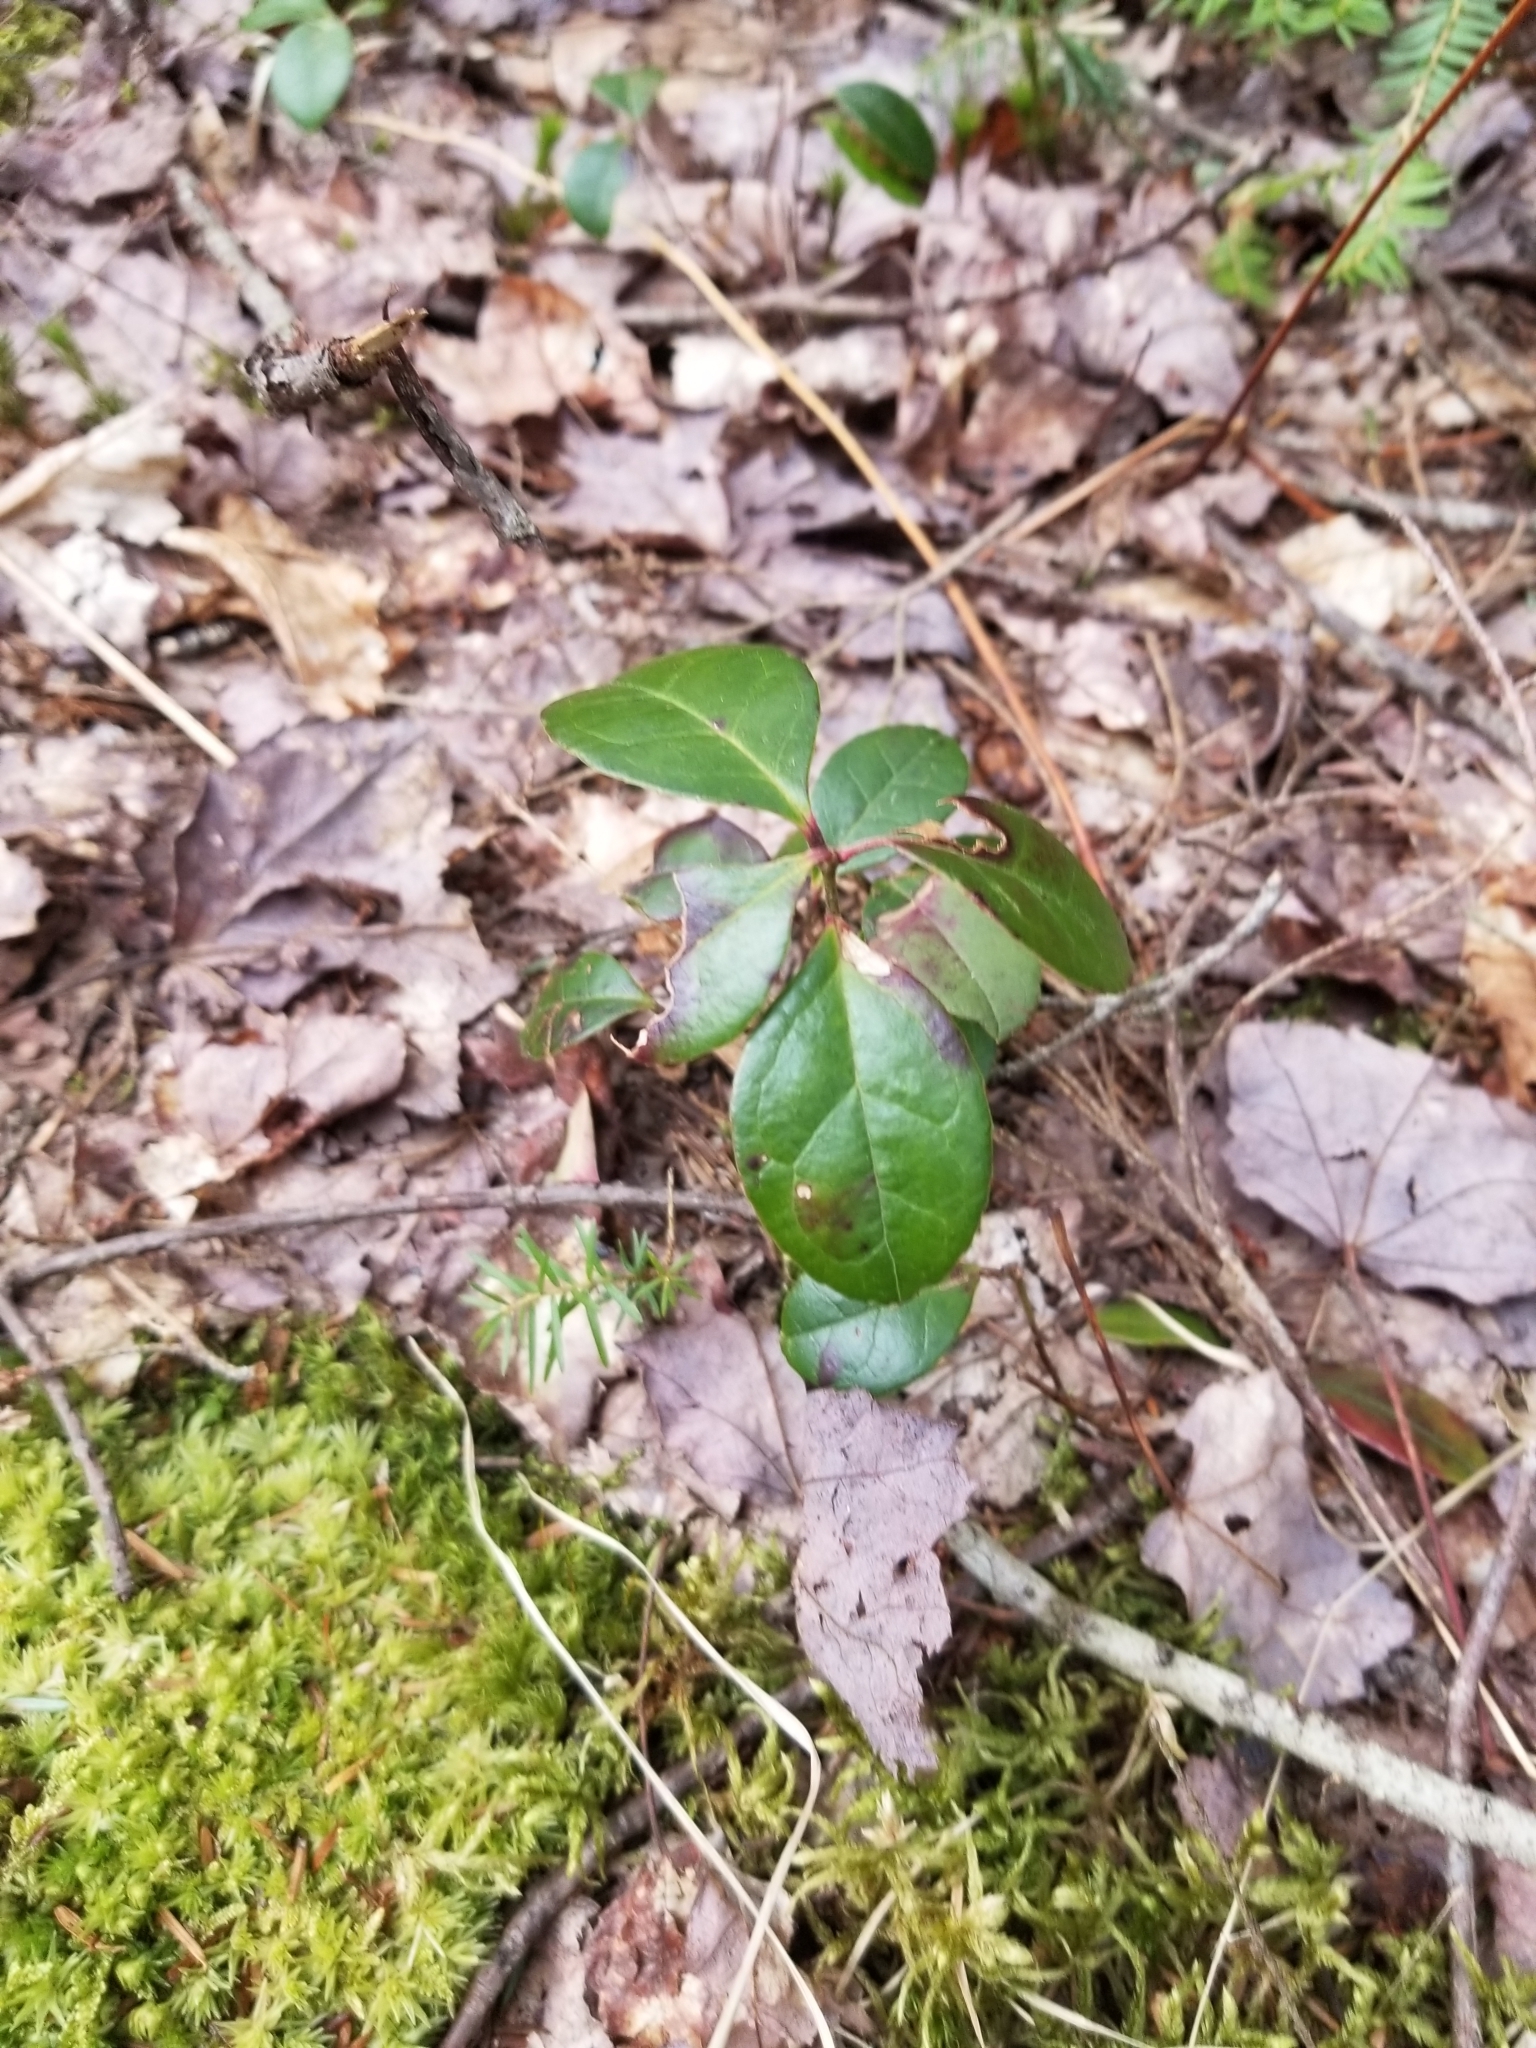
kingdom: Plantae
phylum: Tracheophyta
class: Magnoliopsida
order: Ericales
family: Ericaceae
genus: Gaultheria
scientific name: Gaultheria procumbens
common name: Checkerberry
